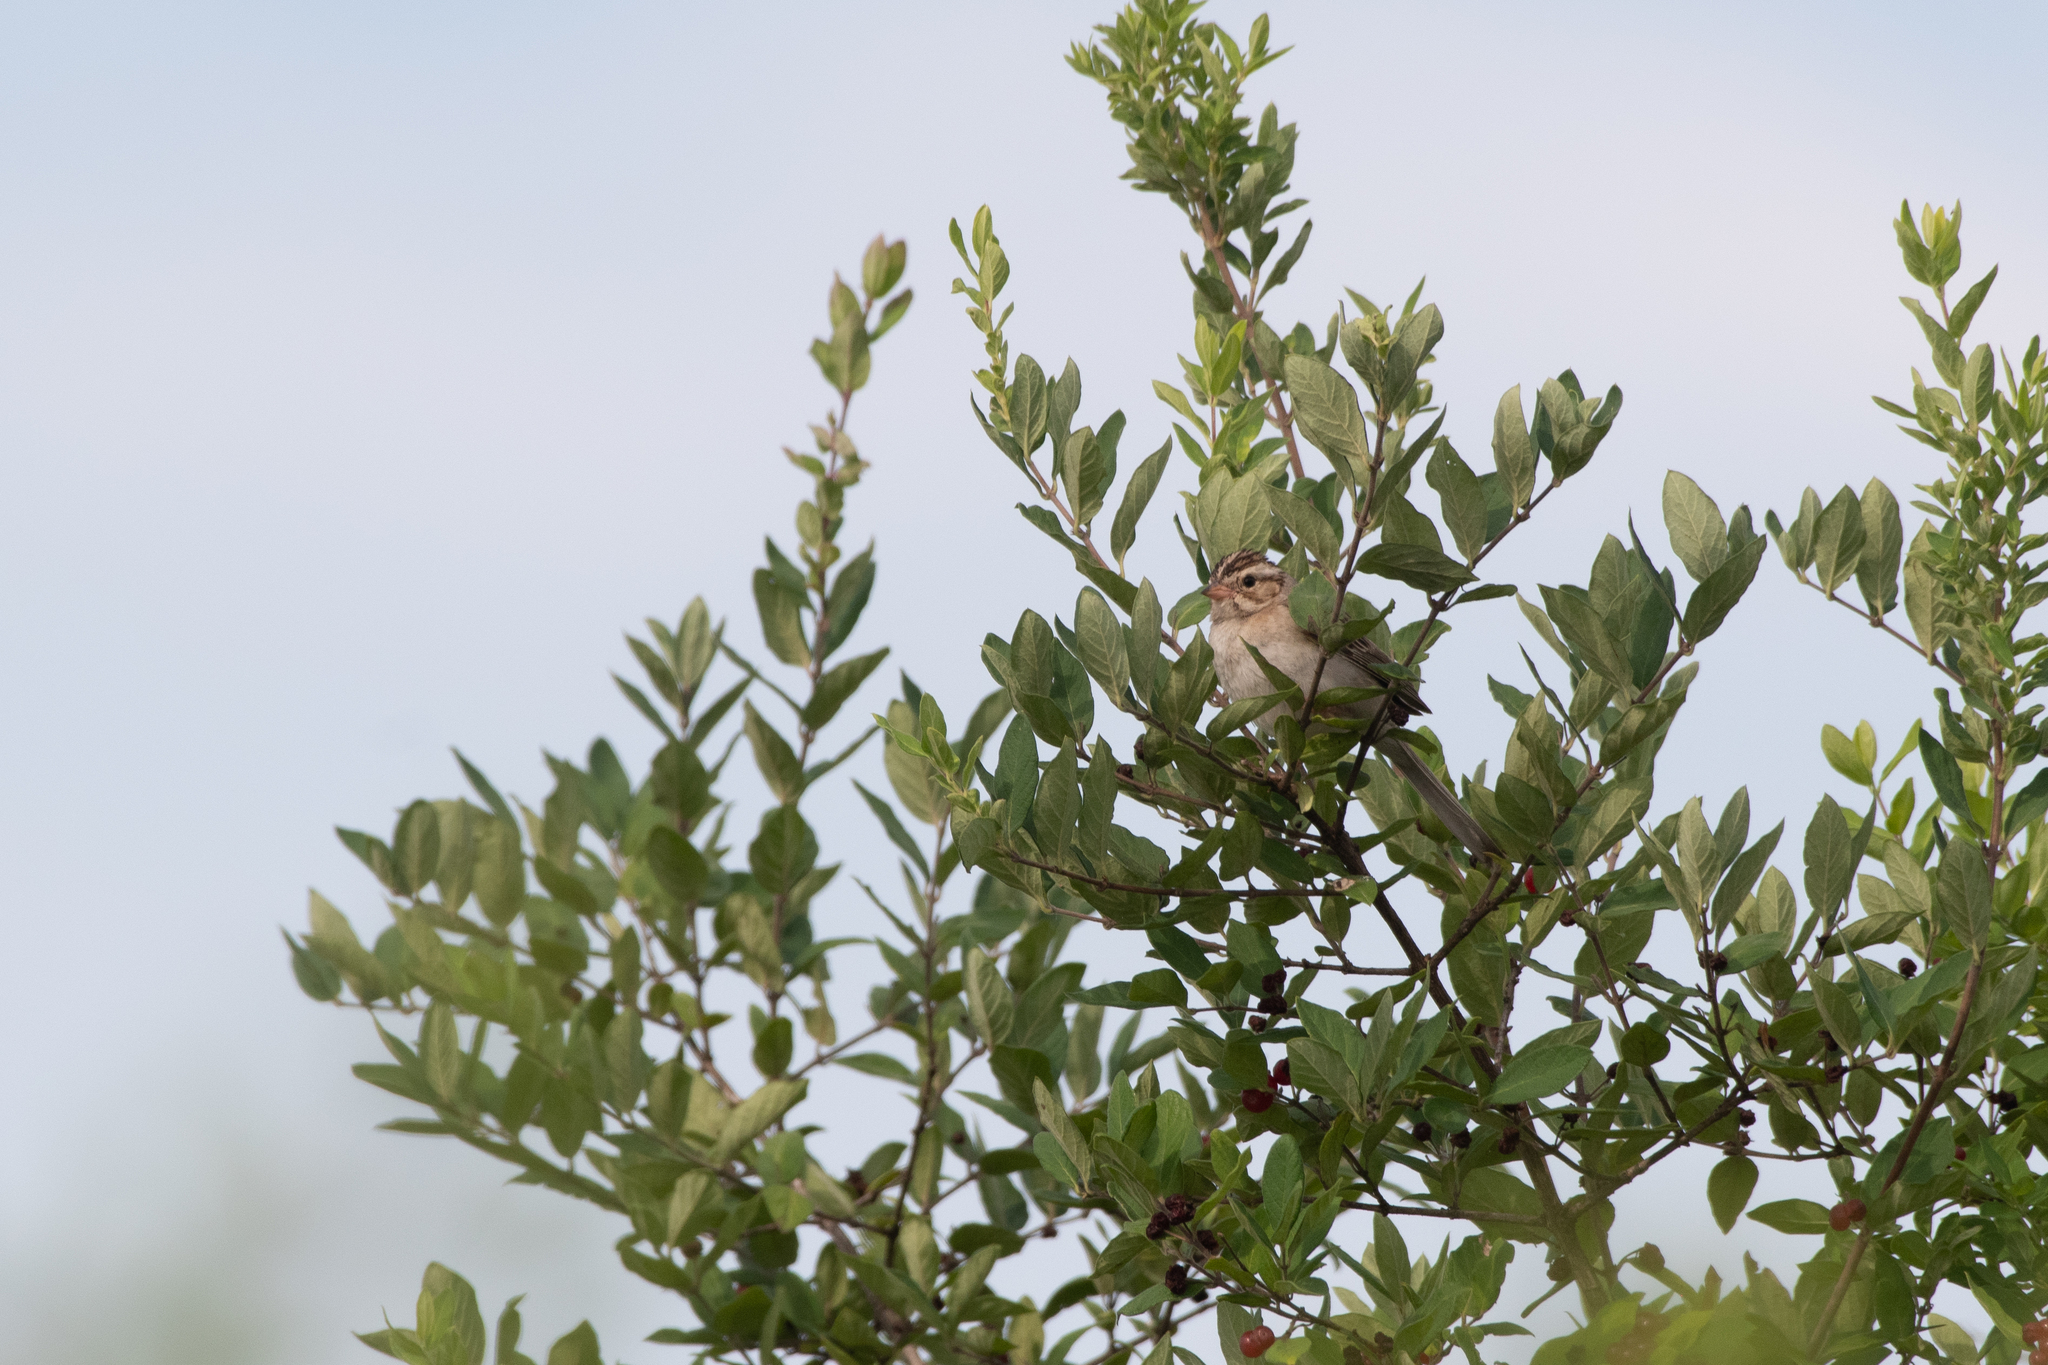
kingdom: Animalia
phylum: Chordata
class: Aves
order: Passeriformes
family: Passerellidae
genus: Spizella
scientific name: Spizella pallida
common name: Clay-colored sparrow
